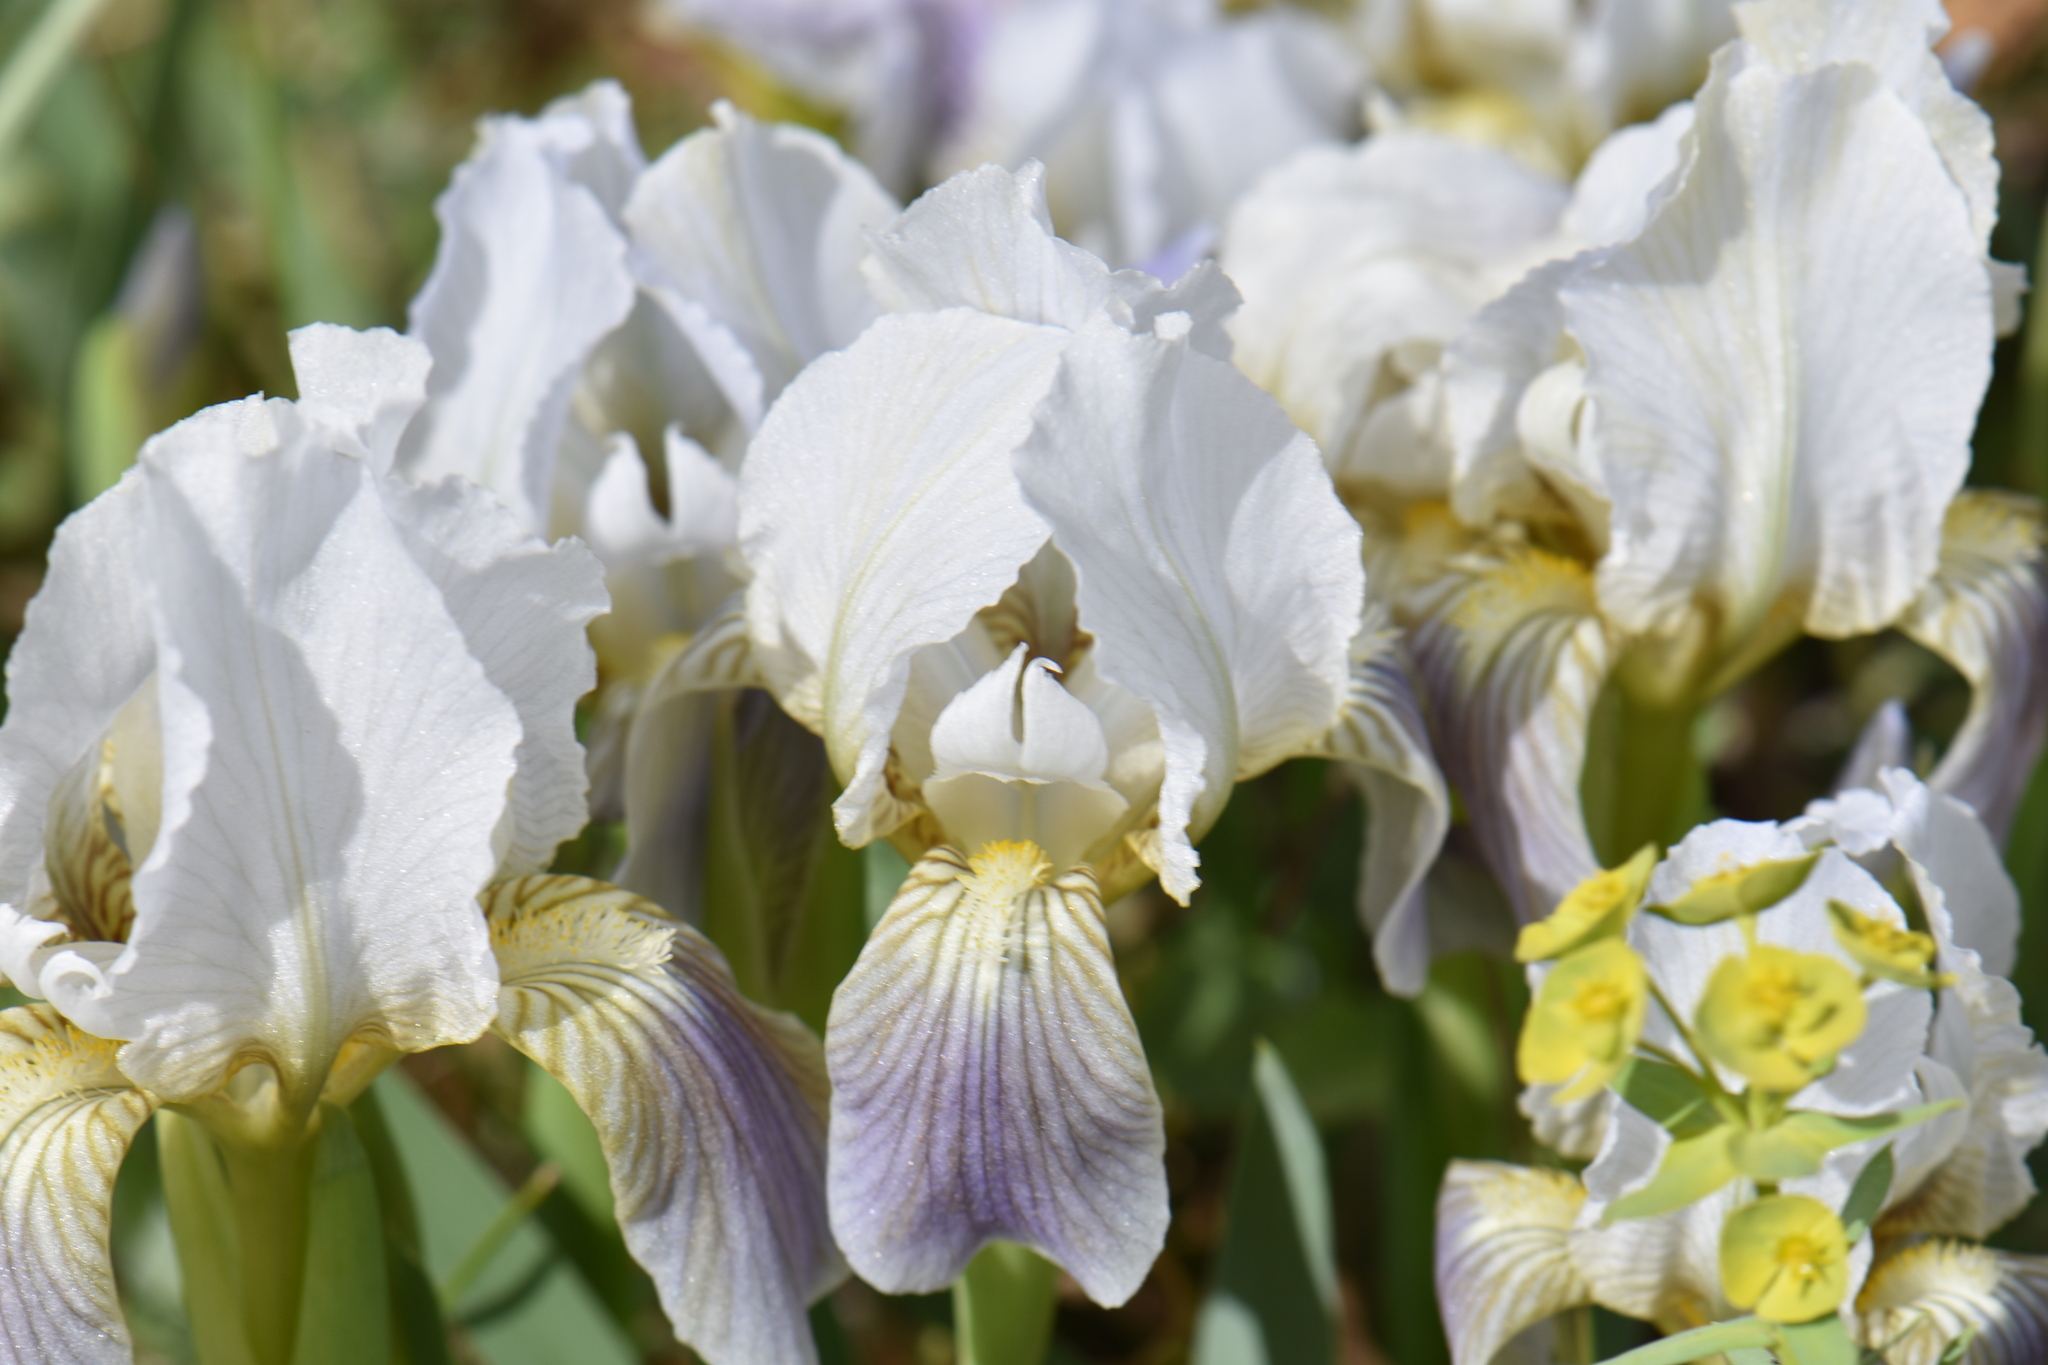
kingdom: Plantae
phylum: Tracheophyta
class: Liliopsida
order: Asparagales
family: Iridaceae
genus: Iris
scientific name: Iris lutescens
